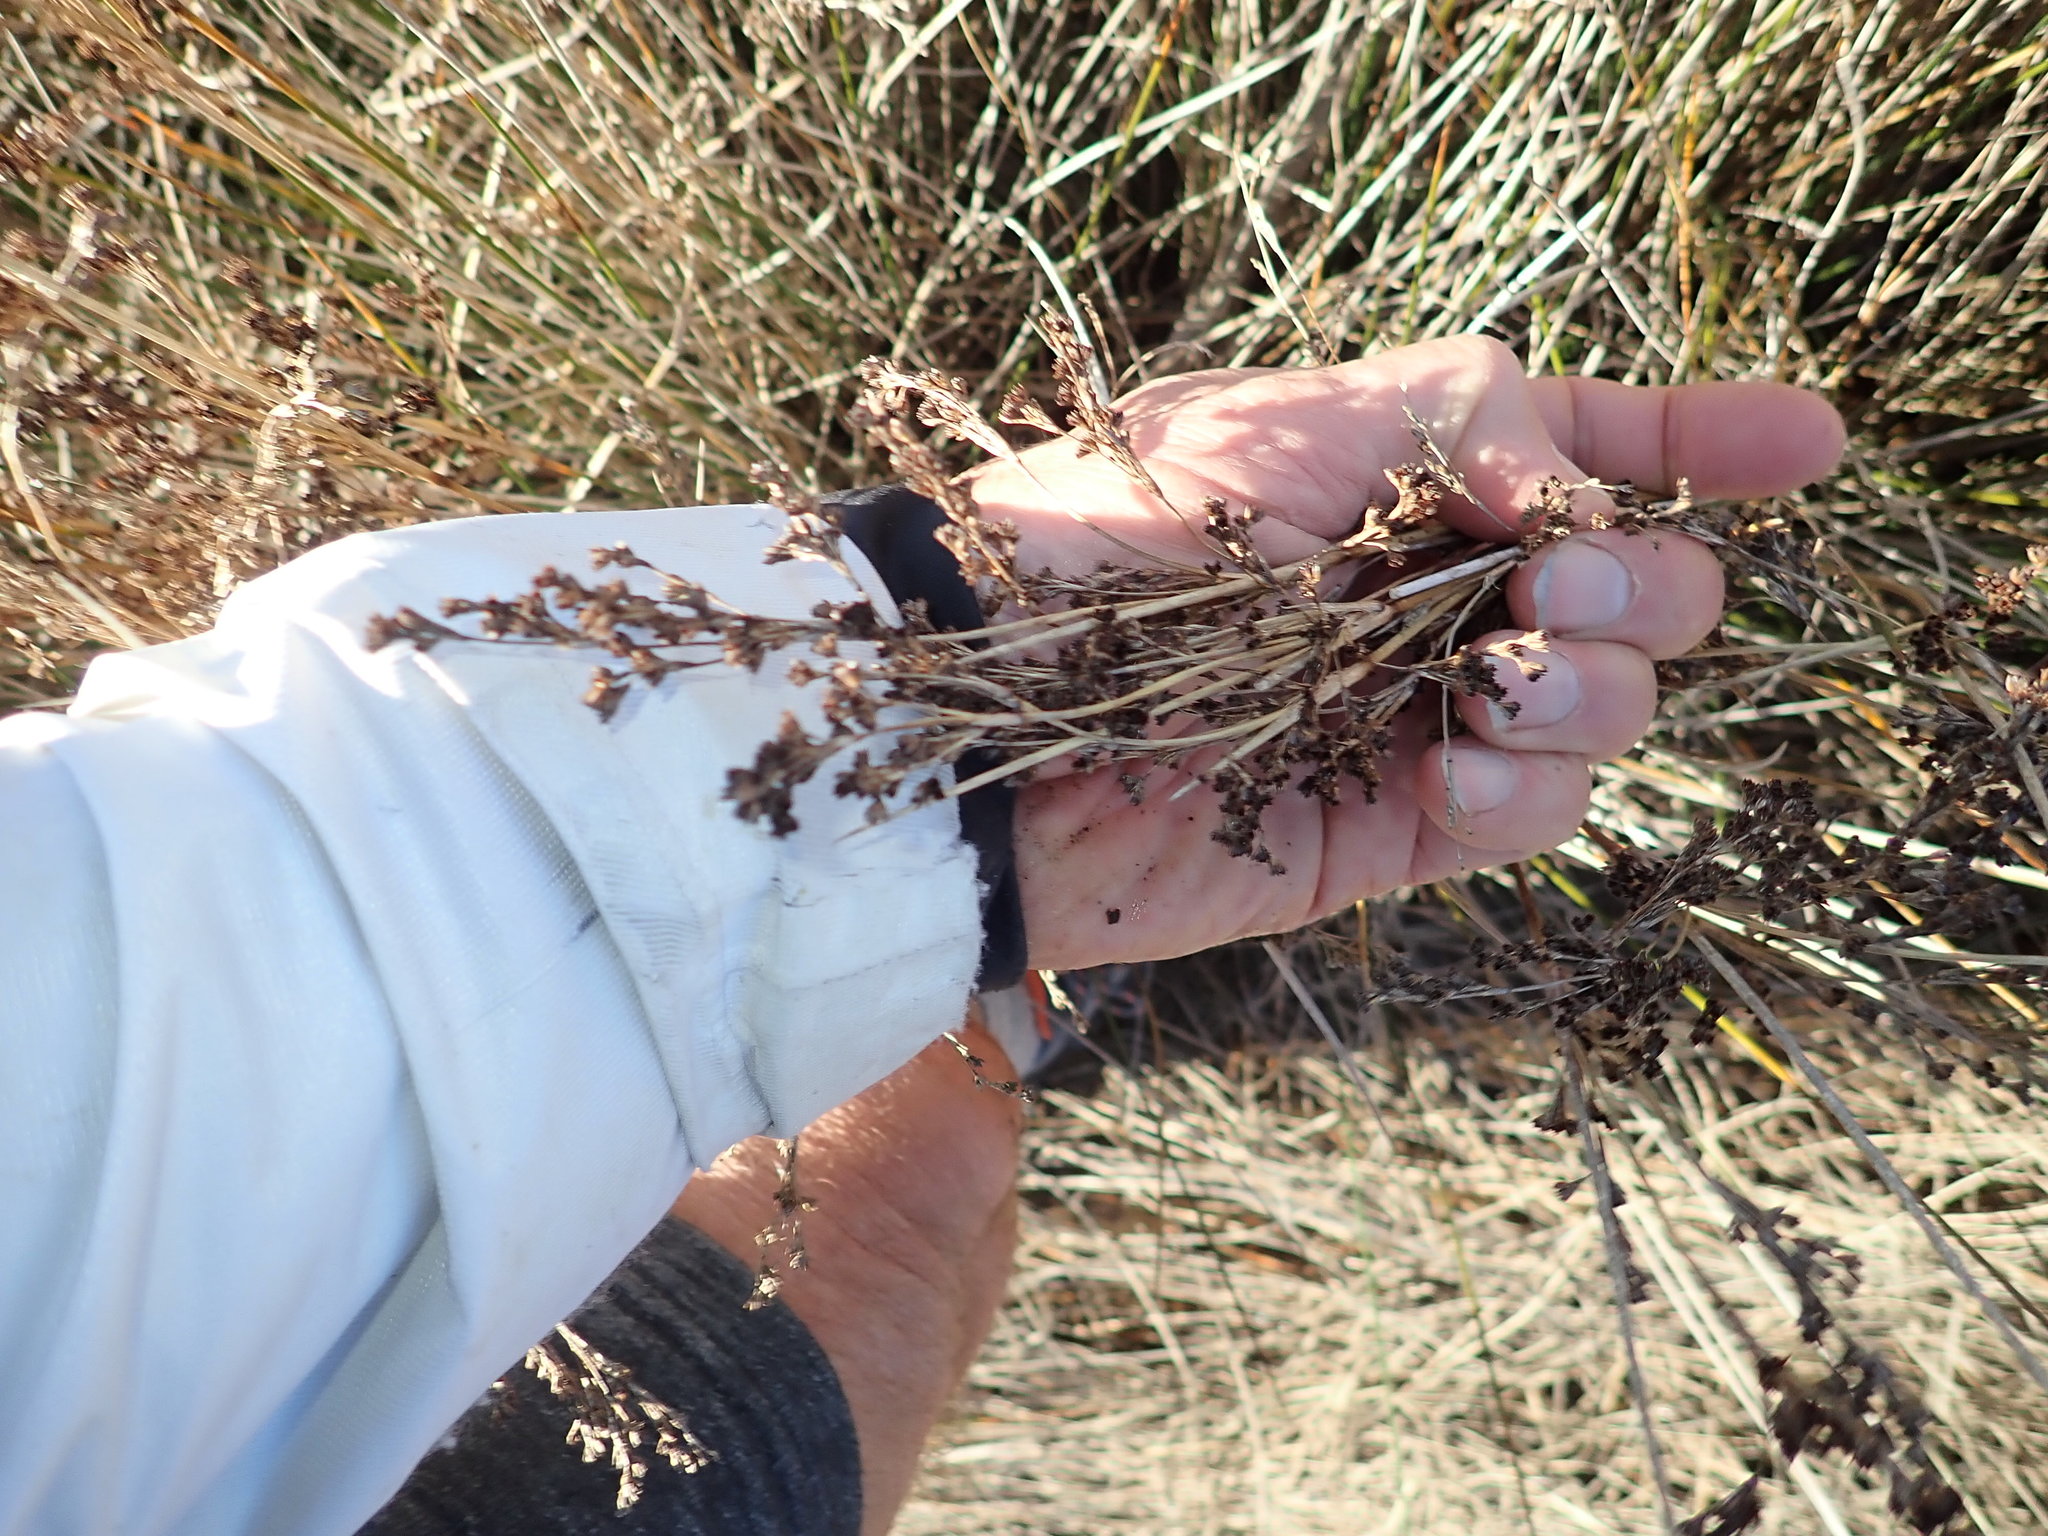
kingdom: Plantae
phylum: Tracheophyta
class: Liliopsida
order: Poales
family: Juncaceae
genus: Juncus
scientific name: Juncus kraussii
